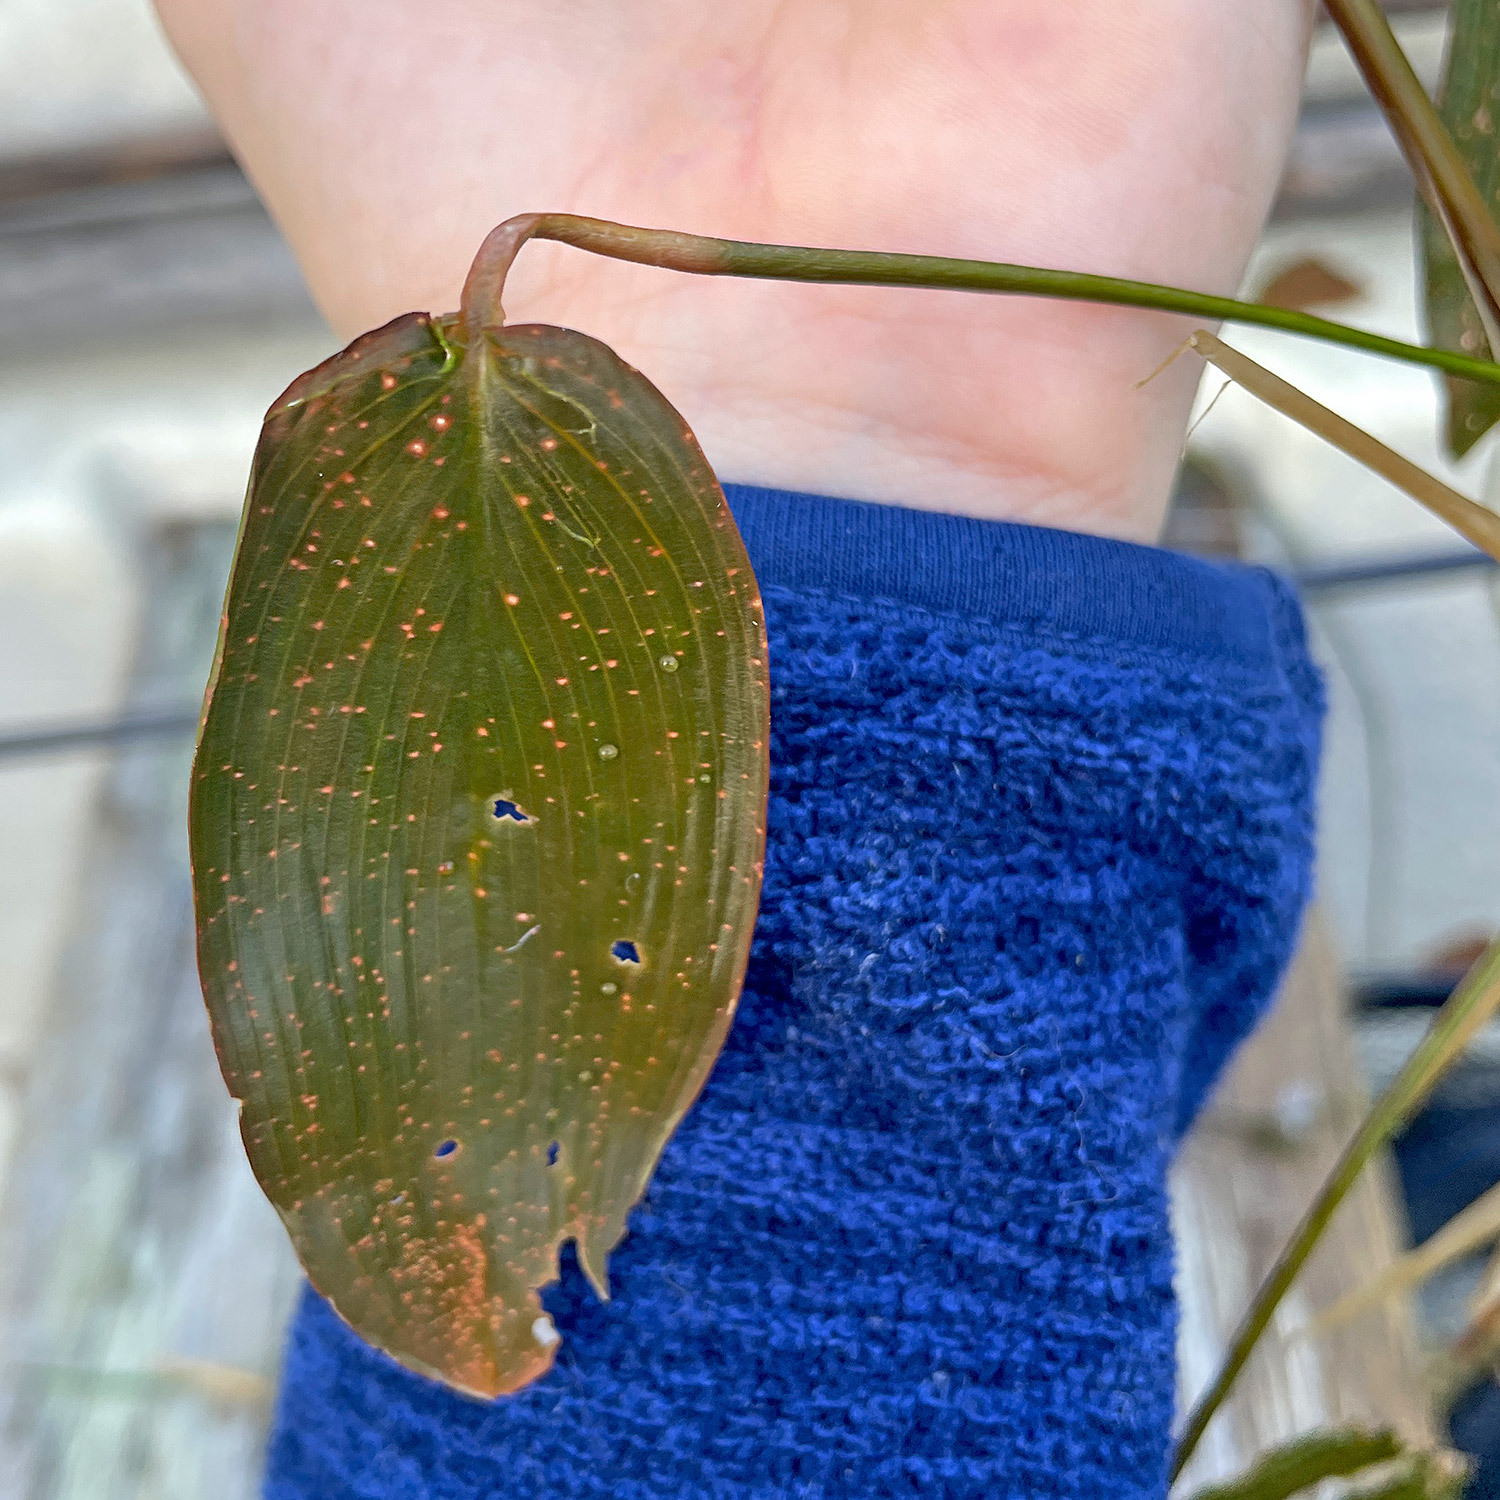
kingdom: Plantae
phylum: Tracheophyta
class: Liliopsida
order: Alismatales
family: Potamogetonaceae
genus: Potamogeton
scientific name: Potamogeton natans
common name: Broad-leaved pondweed
